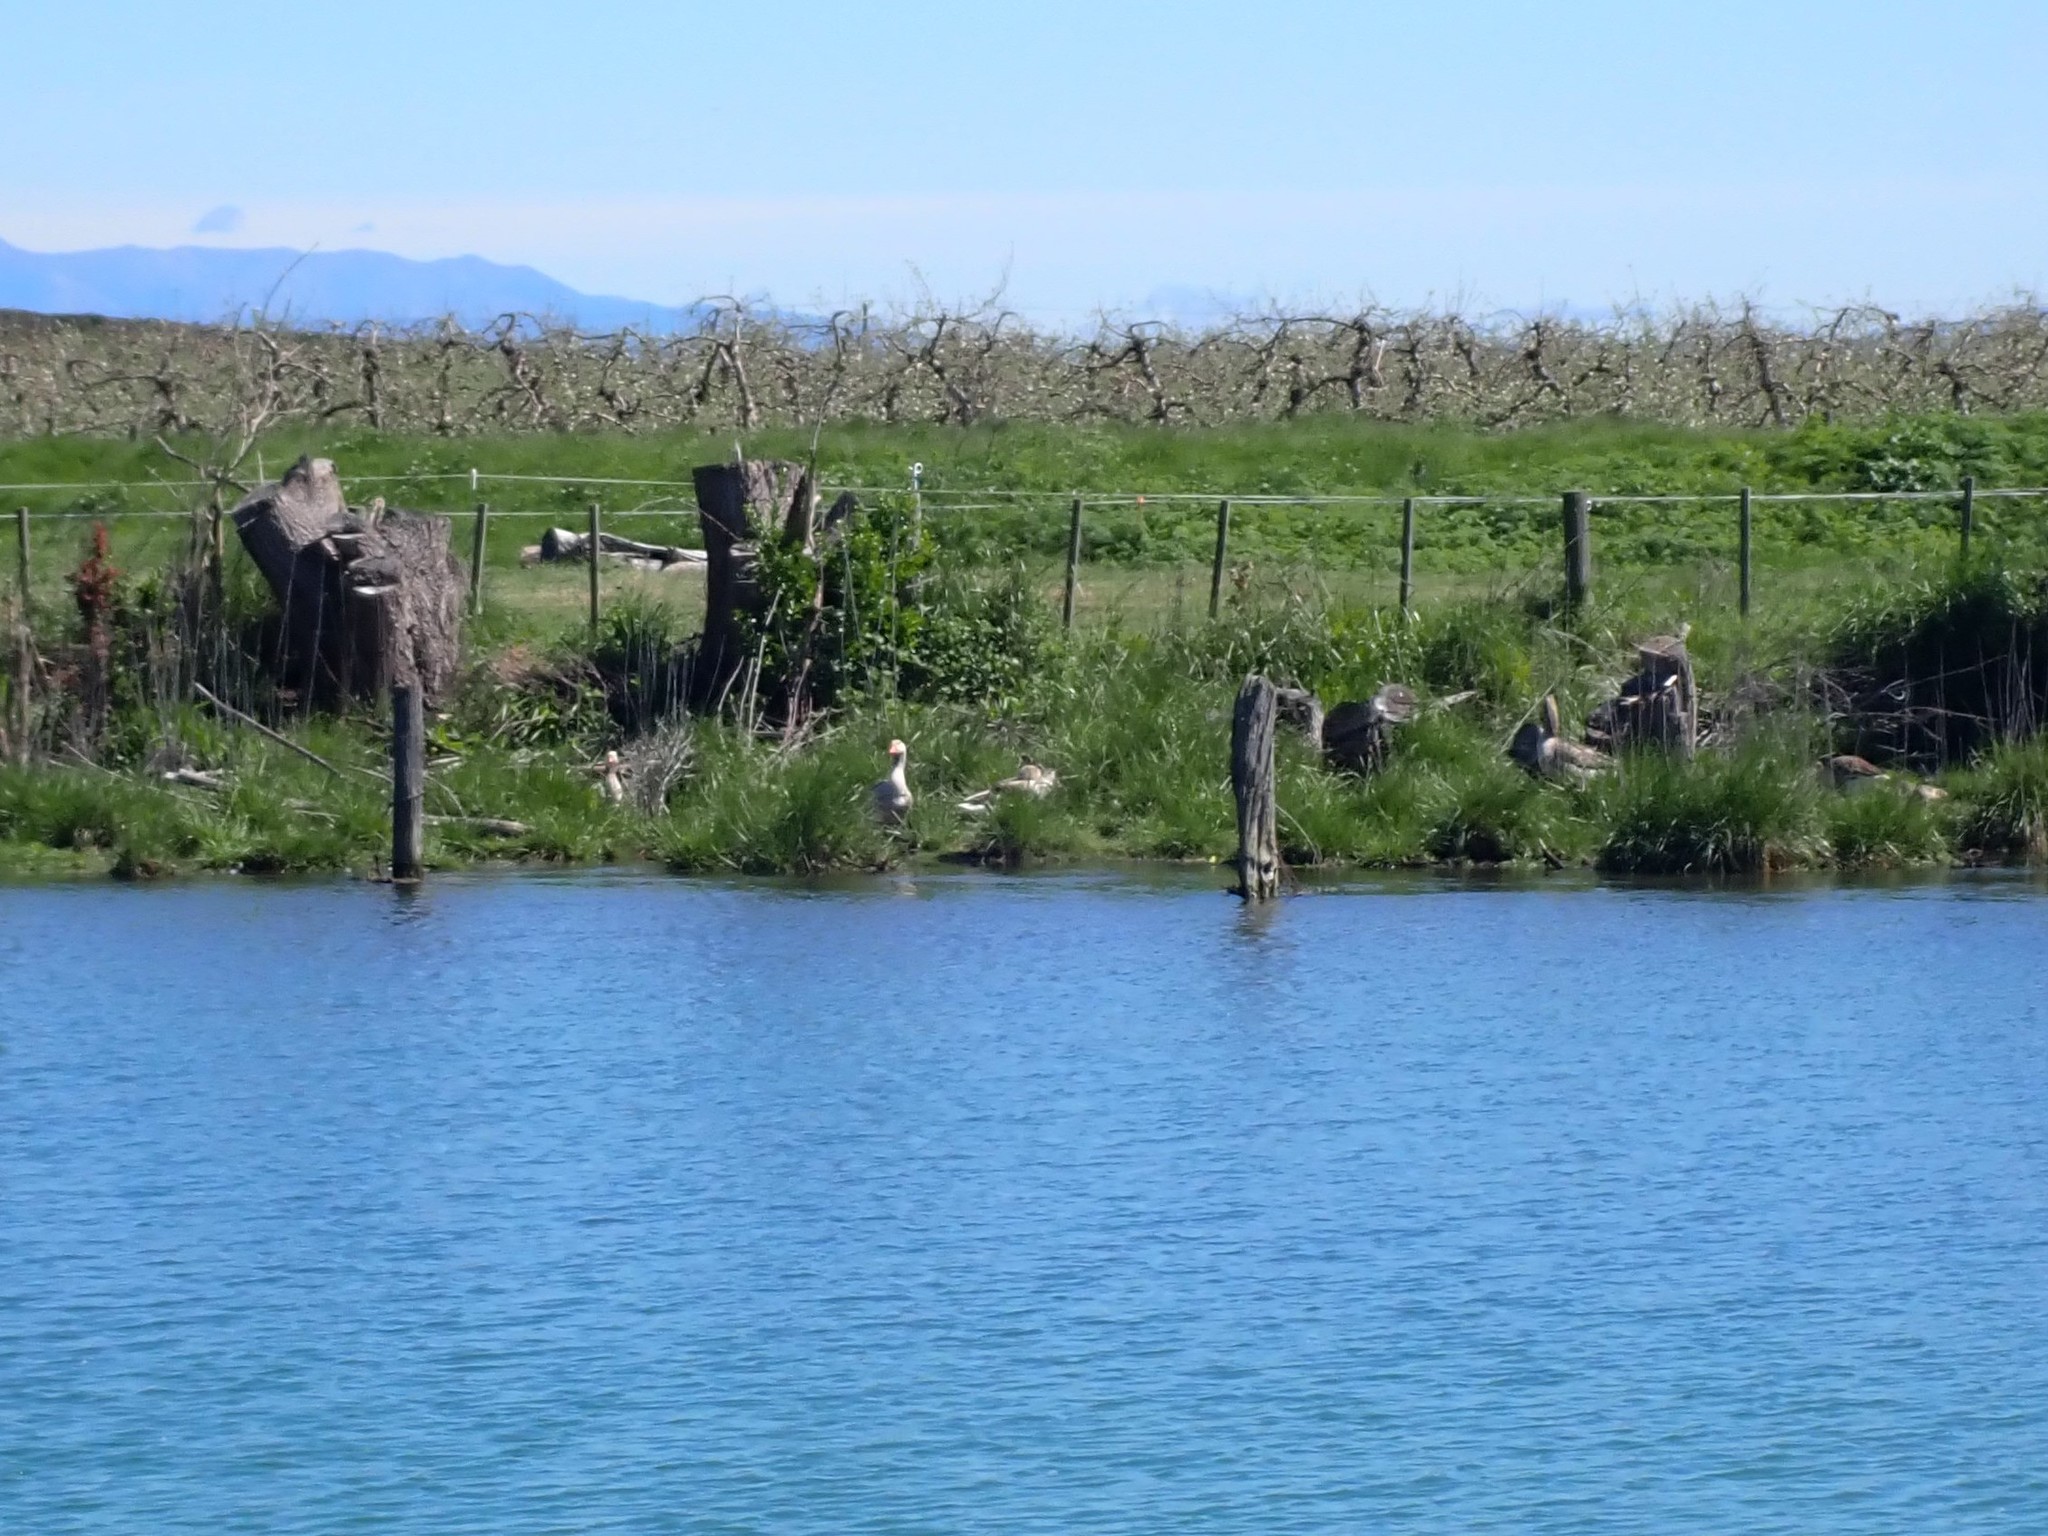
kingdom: Animalia
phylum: Chordata
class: Aves
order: Anseriformes
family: Anatidae
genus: Anser
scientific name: Anser anser
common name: Greylag goose
